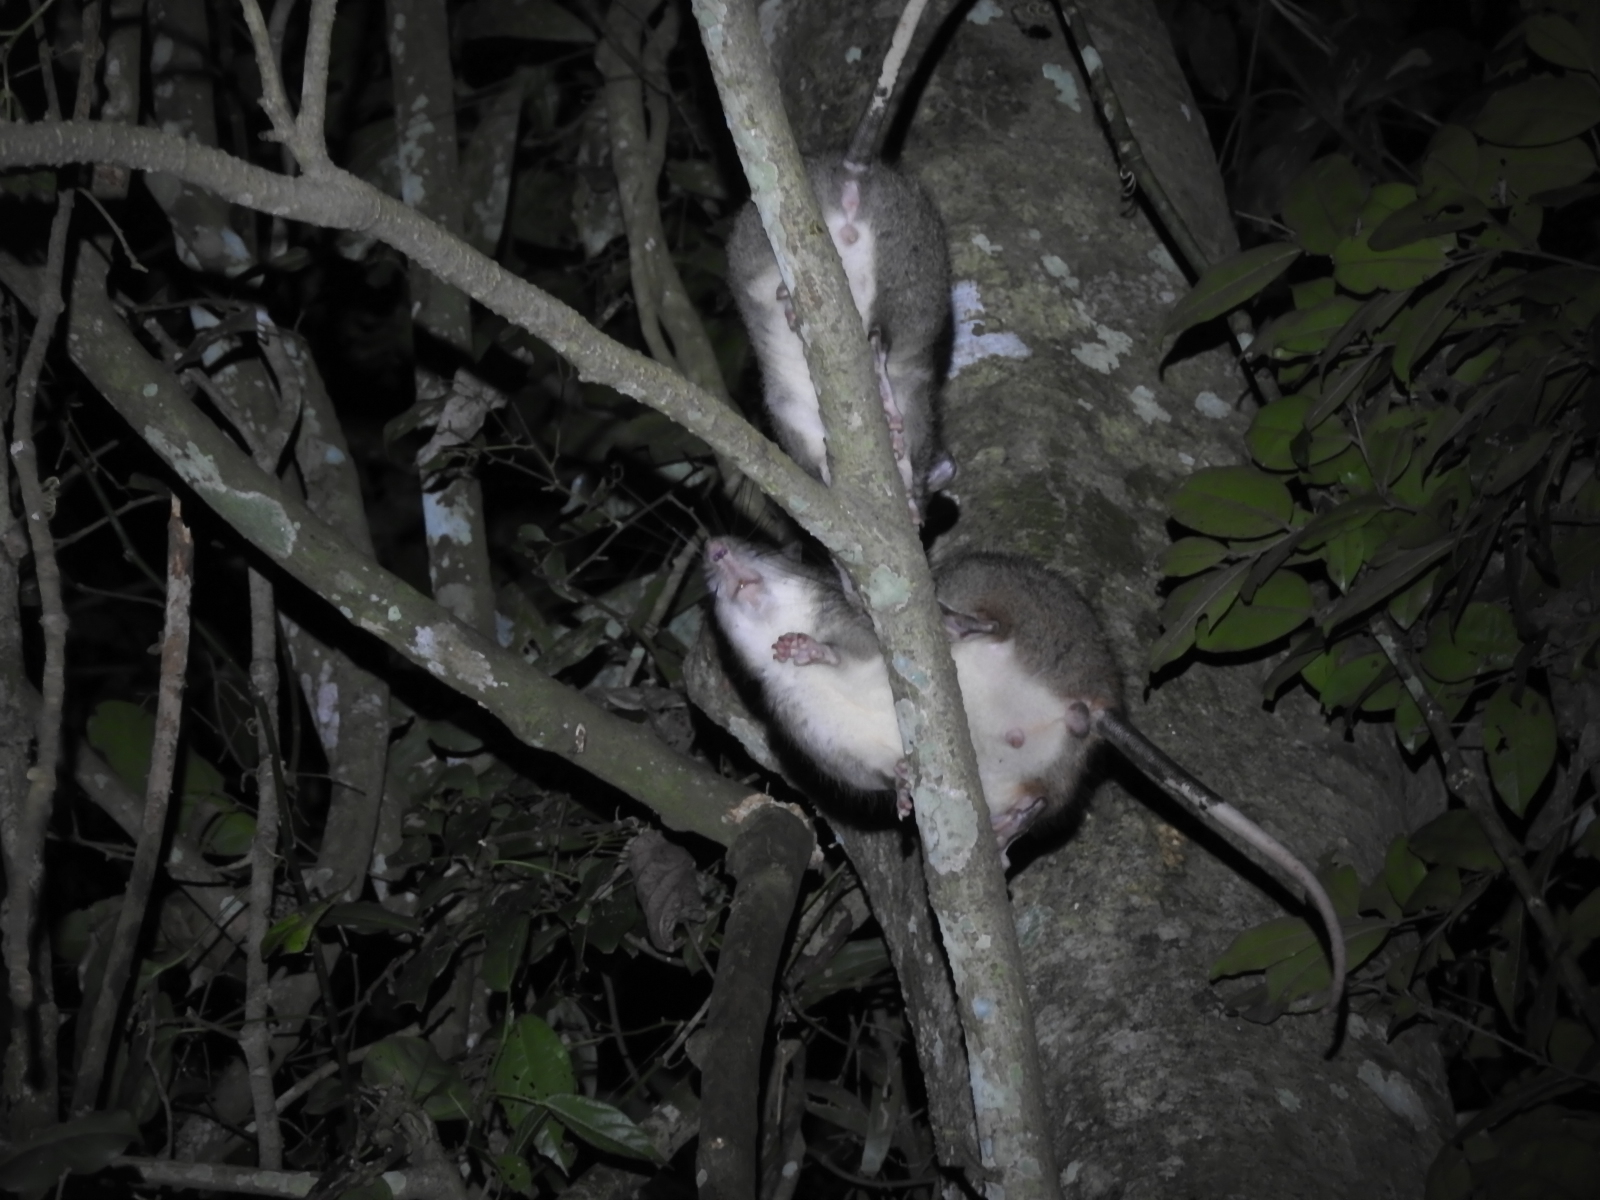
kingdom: Animalia
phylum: Chordata
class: Mammalia
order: Rodentia
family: Muridae
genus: Uromys
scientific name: Uromys caudimaculatus
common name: Giant white-tailed uromys
